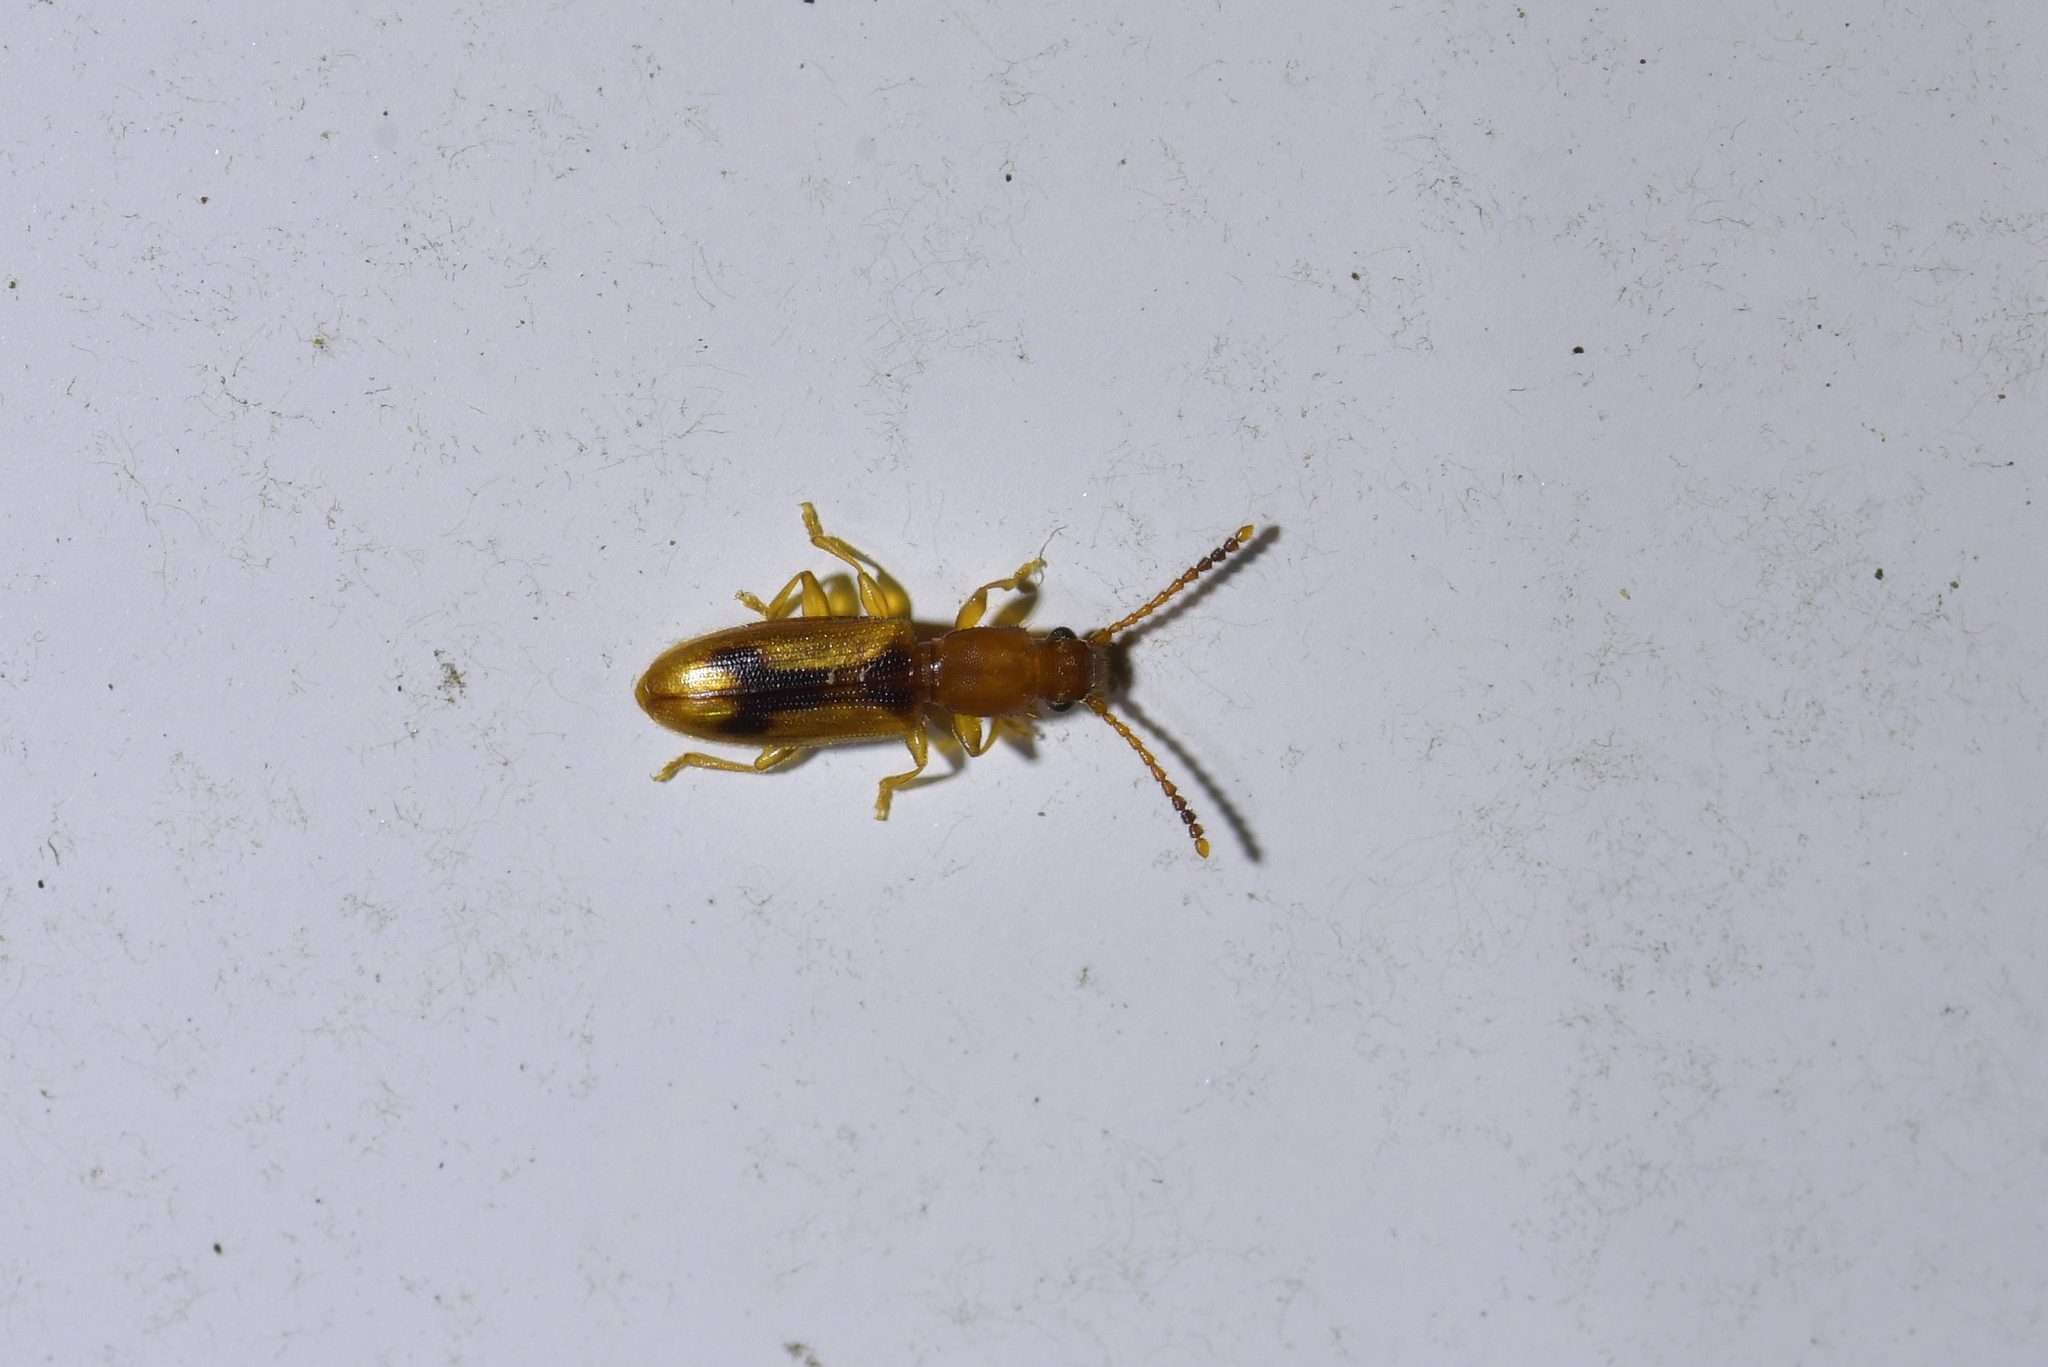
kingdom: Animalia
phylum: Arthropoda
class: Insecta
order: Coleoptera
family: Silvanidae
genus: Cryptamorpha
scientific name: Cryptamorpha desjardinsi
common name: Cryptamorpha
